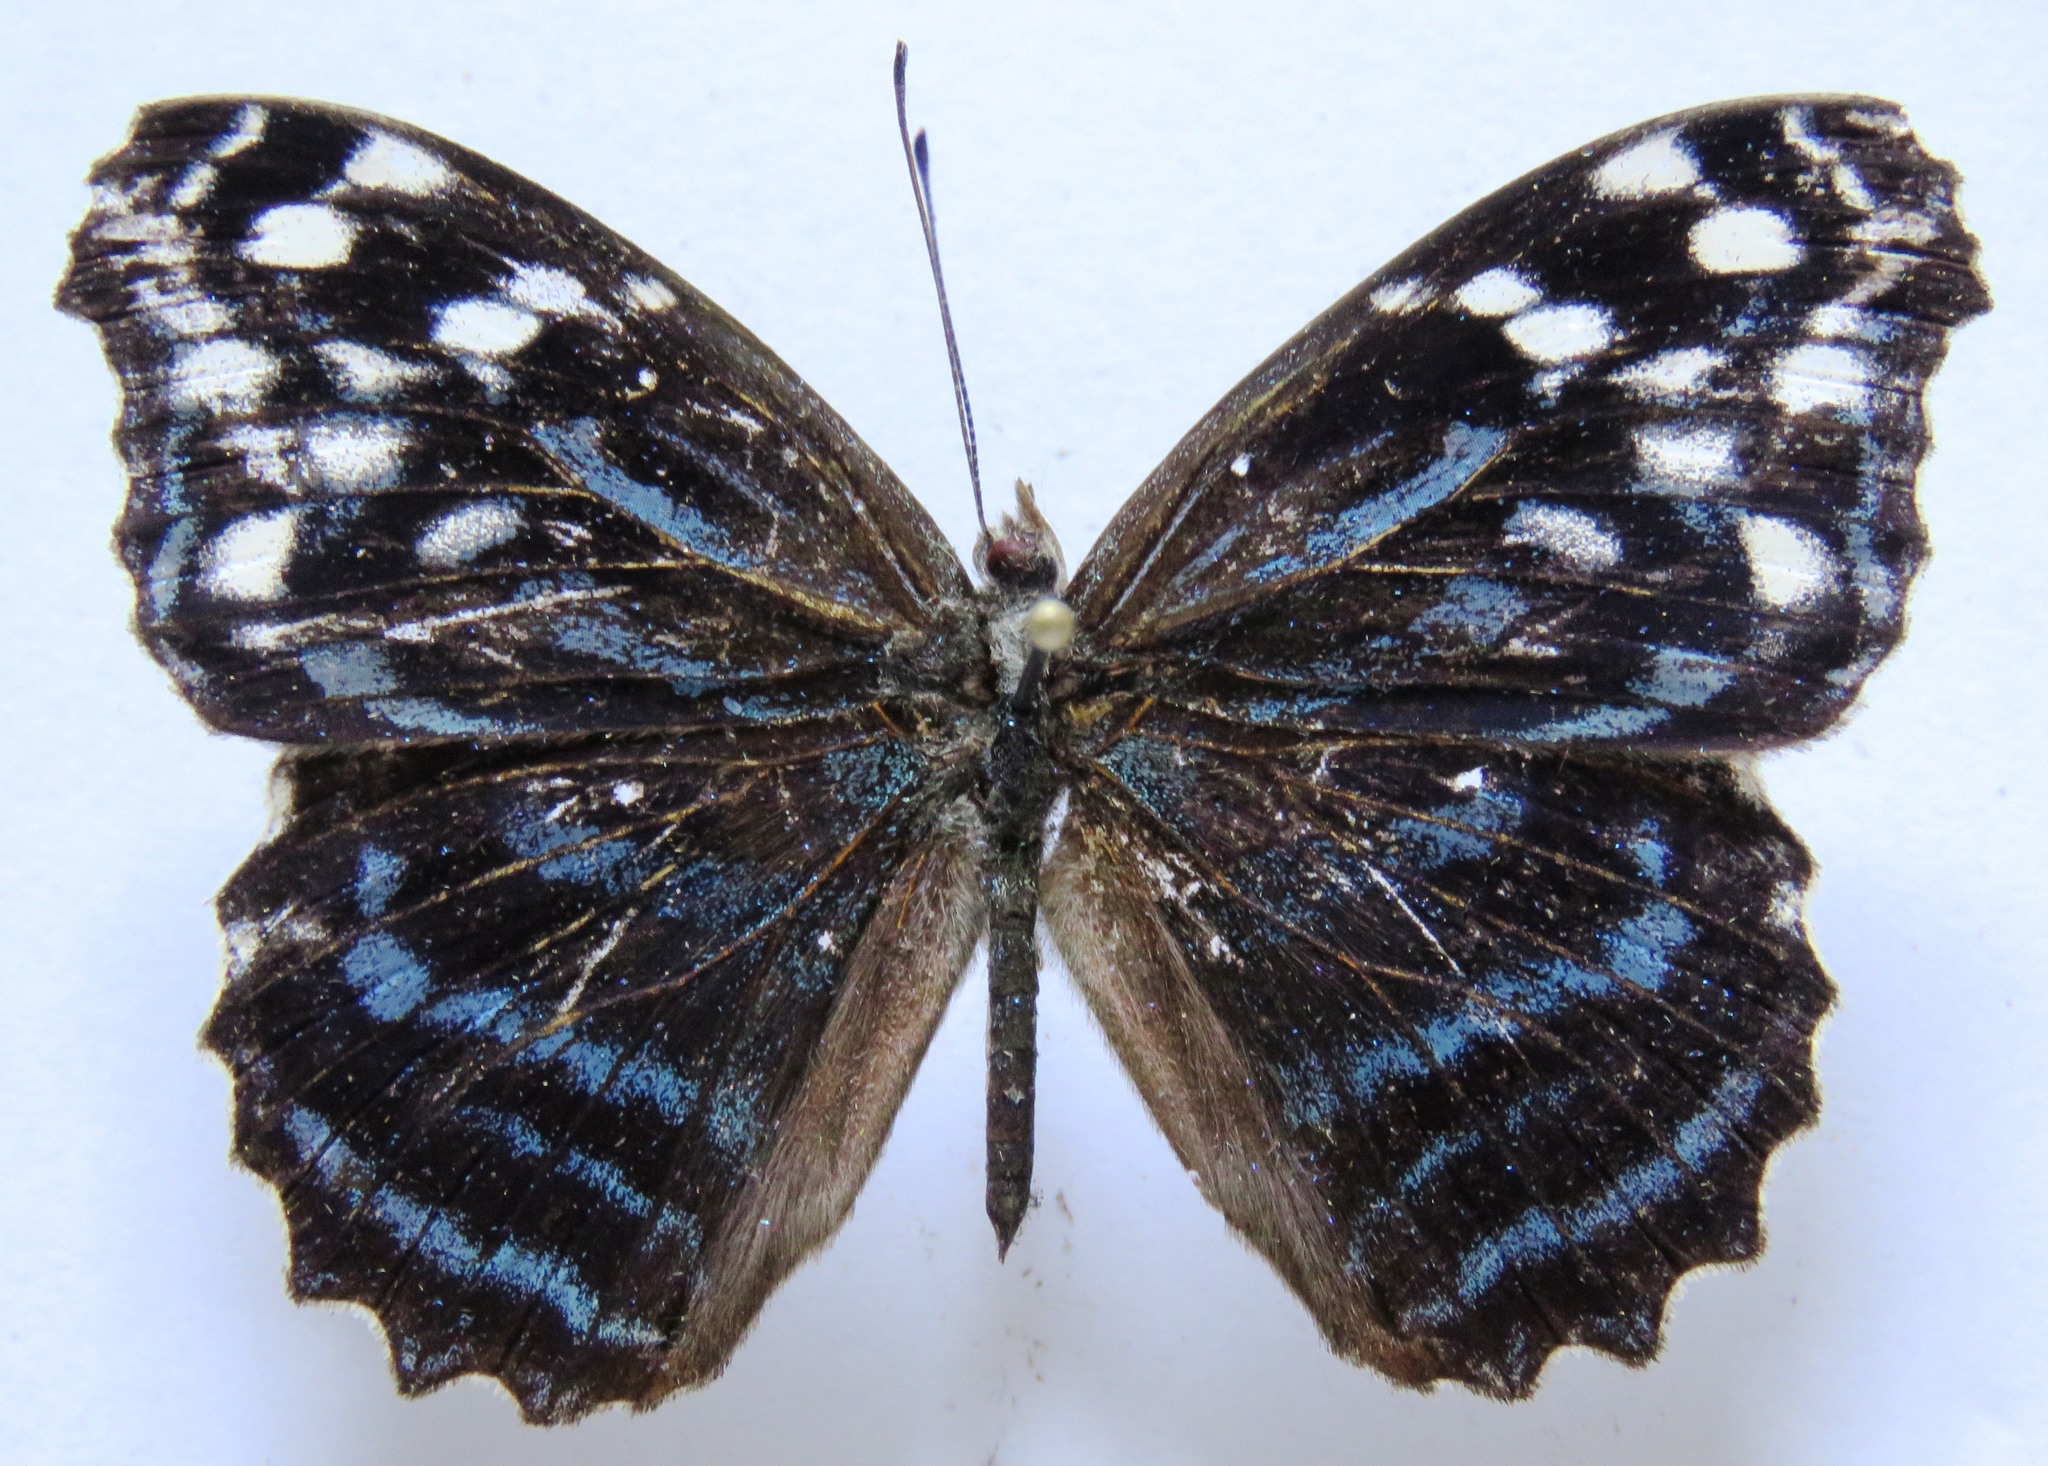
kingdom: Animalia
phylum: Arthropoda
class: Insecta
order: Lepidoptera
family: Nymphalidae
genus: Myscelia
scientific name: Myscelia ethusa
